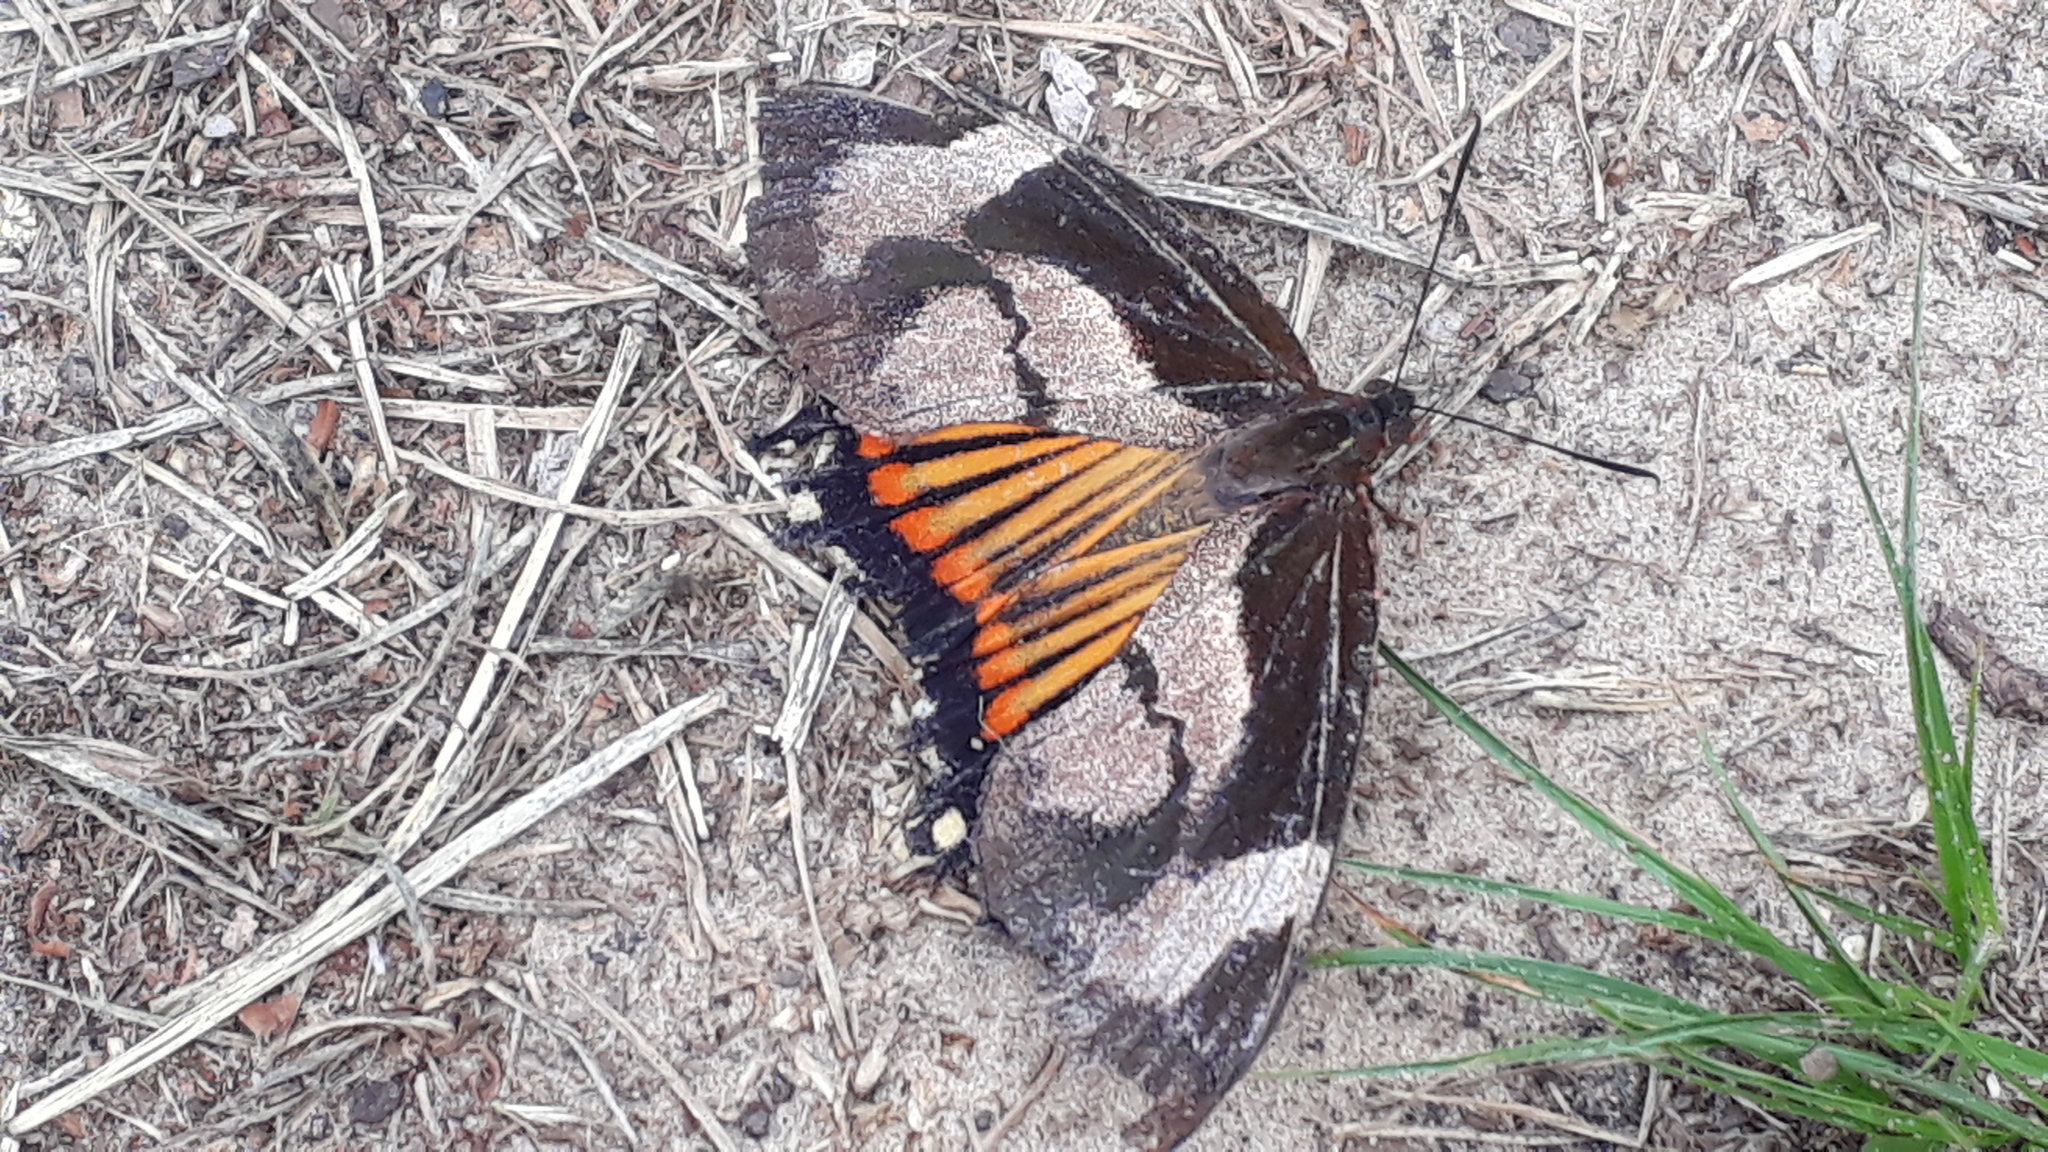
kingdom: Animalia
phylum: Arthropoda
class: Insecta
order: Lepidoptera
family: Castniidae
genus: Imara
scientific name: Imara satrapes
